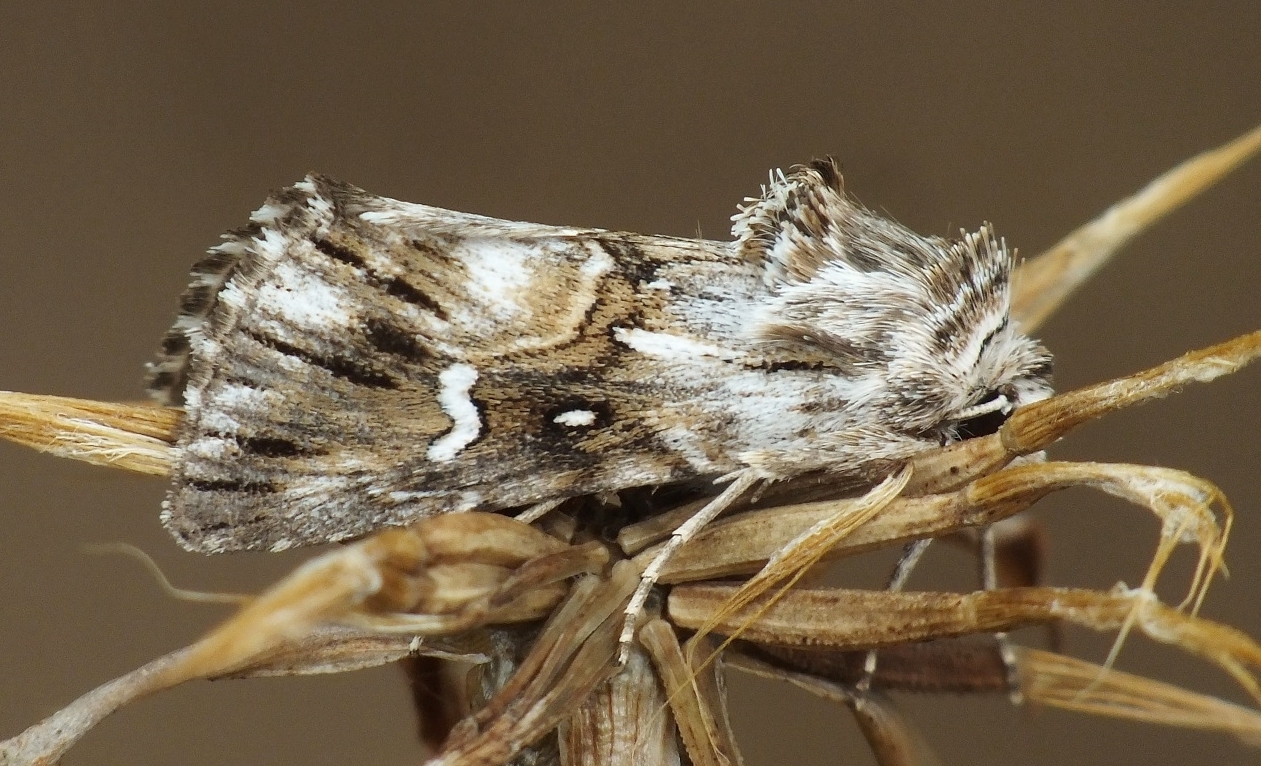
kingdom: Animalia
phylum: Arthropoda
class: Insecta
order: Lepidoptera
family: Noctuidae
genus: Calophasia
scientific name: Calophasia lunula
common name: Toadflax brocade
